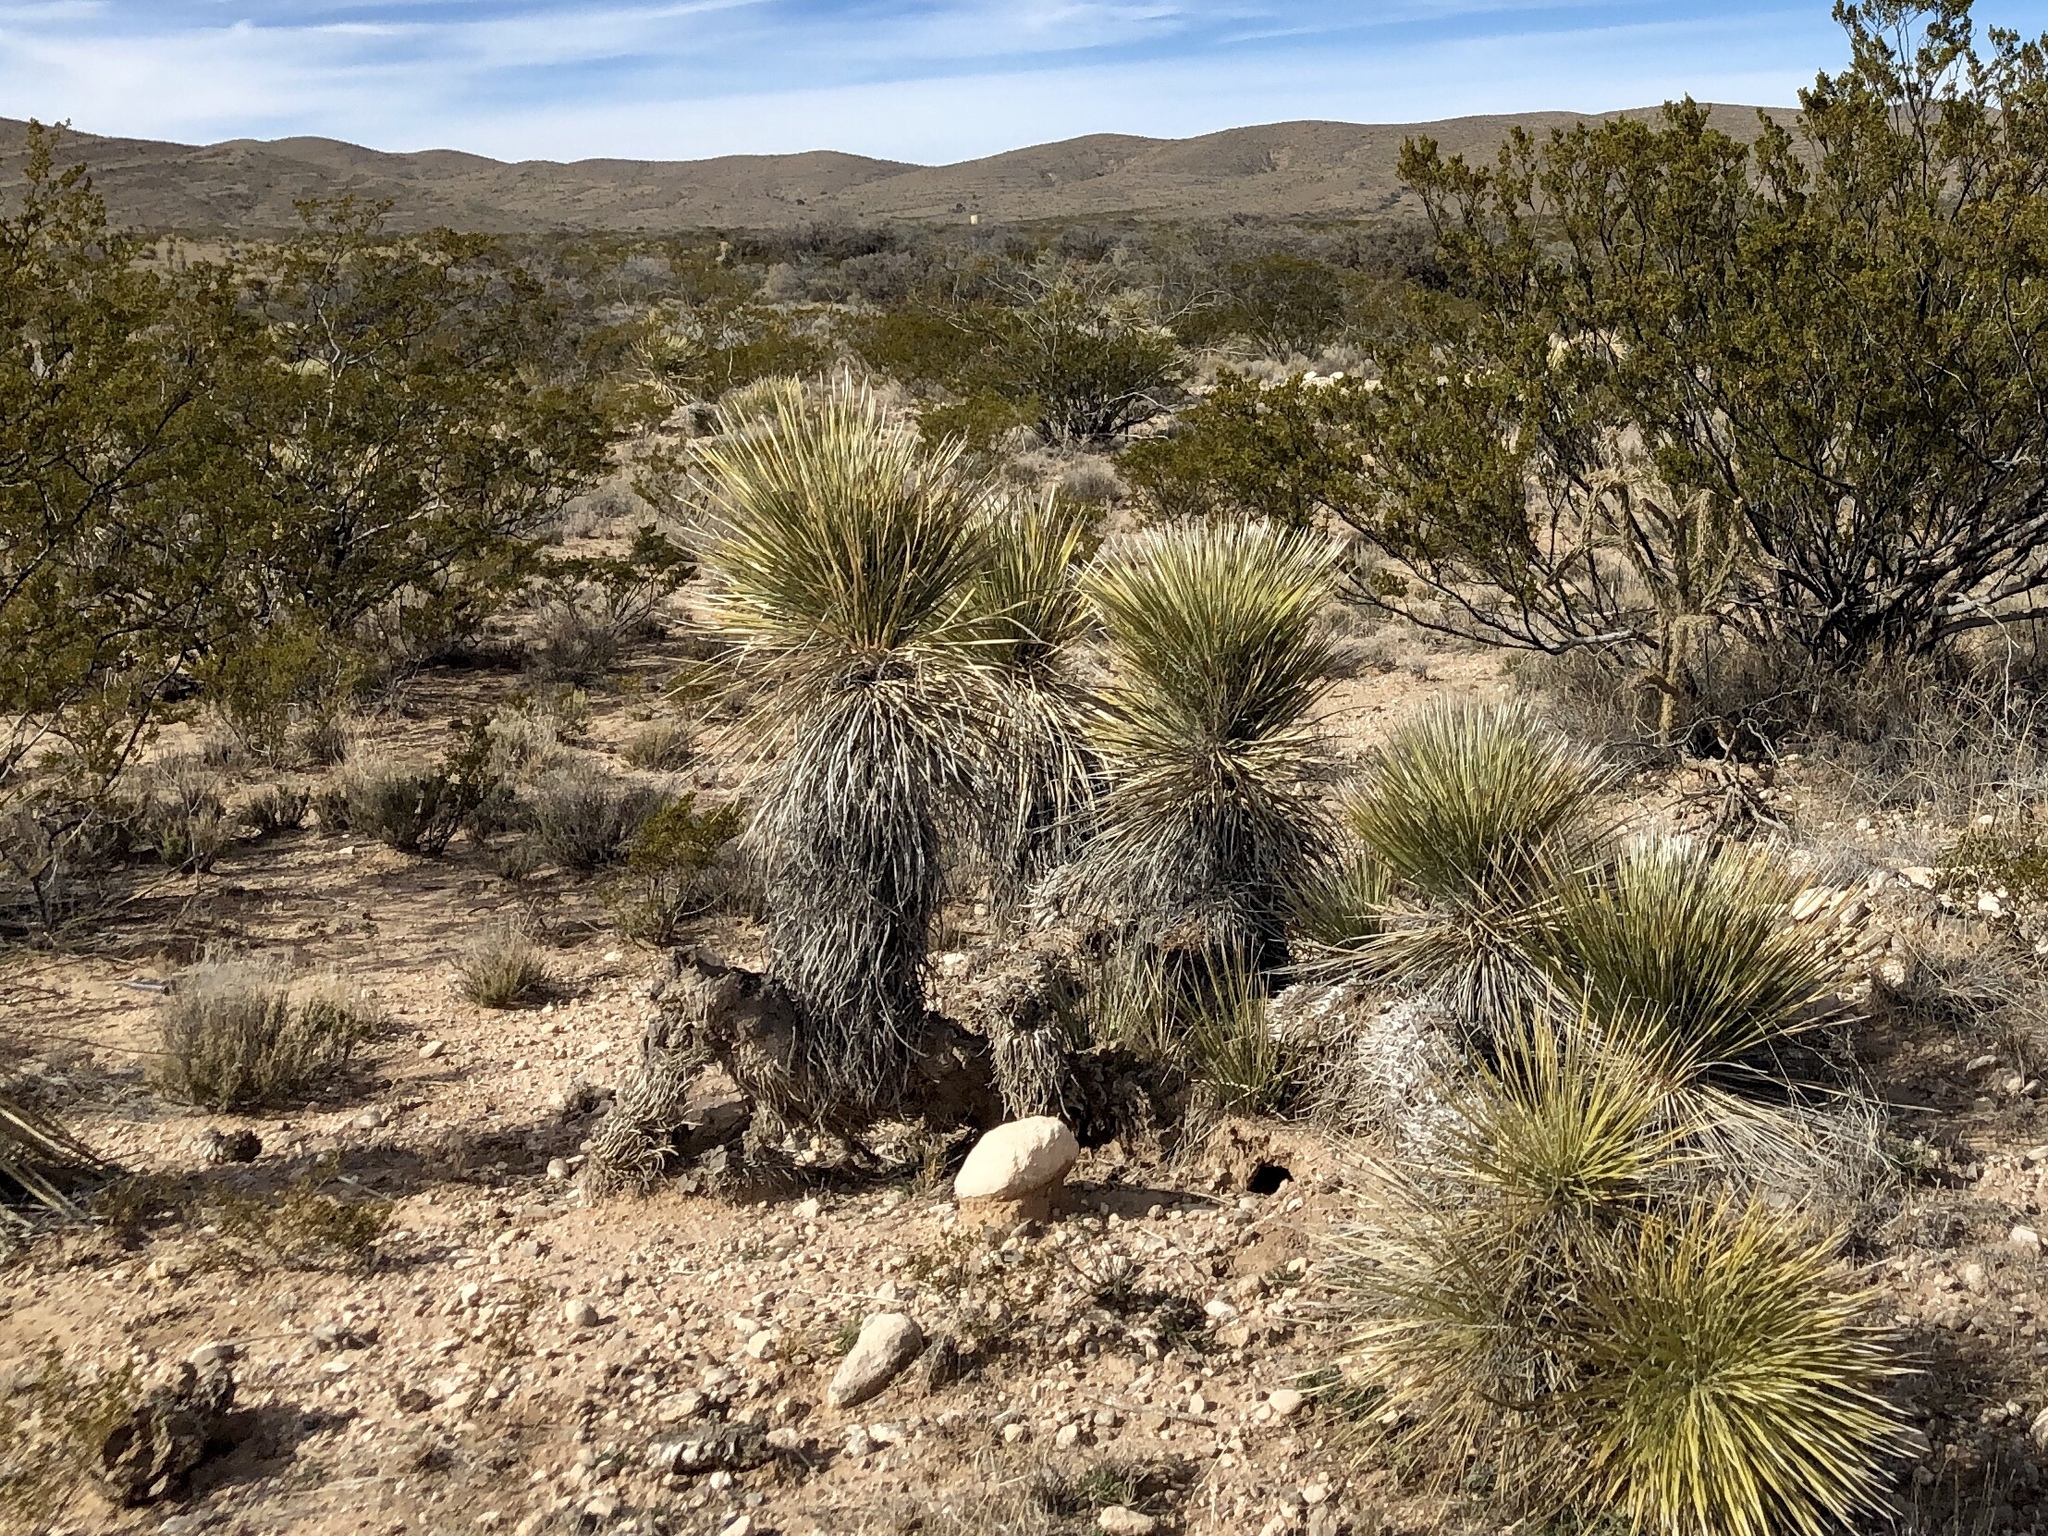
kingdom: Plantae
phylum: Tracheophyta
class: Liliopsida
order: Asparagales
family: Asparagaceae
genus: Yucca
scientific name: Yucca elata
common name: Palmella
